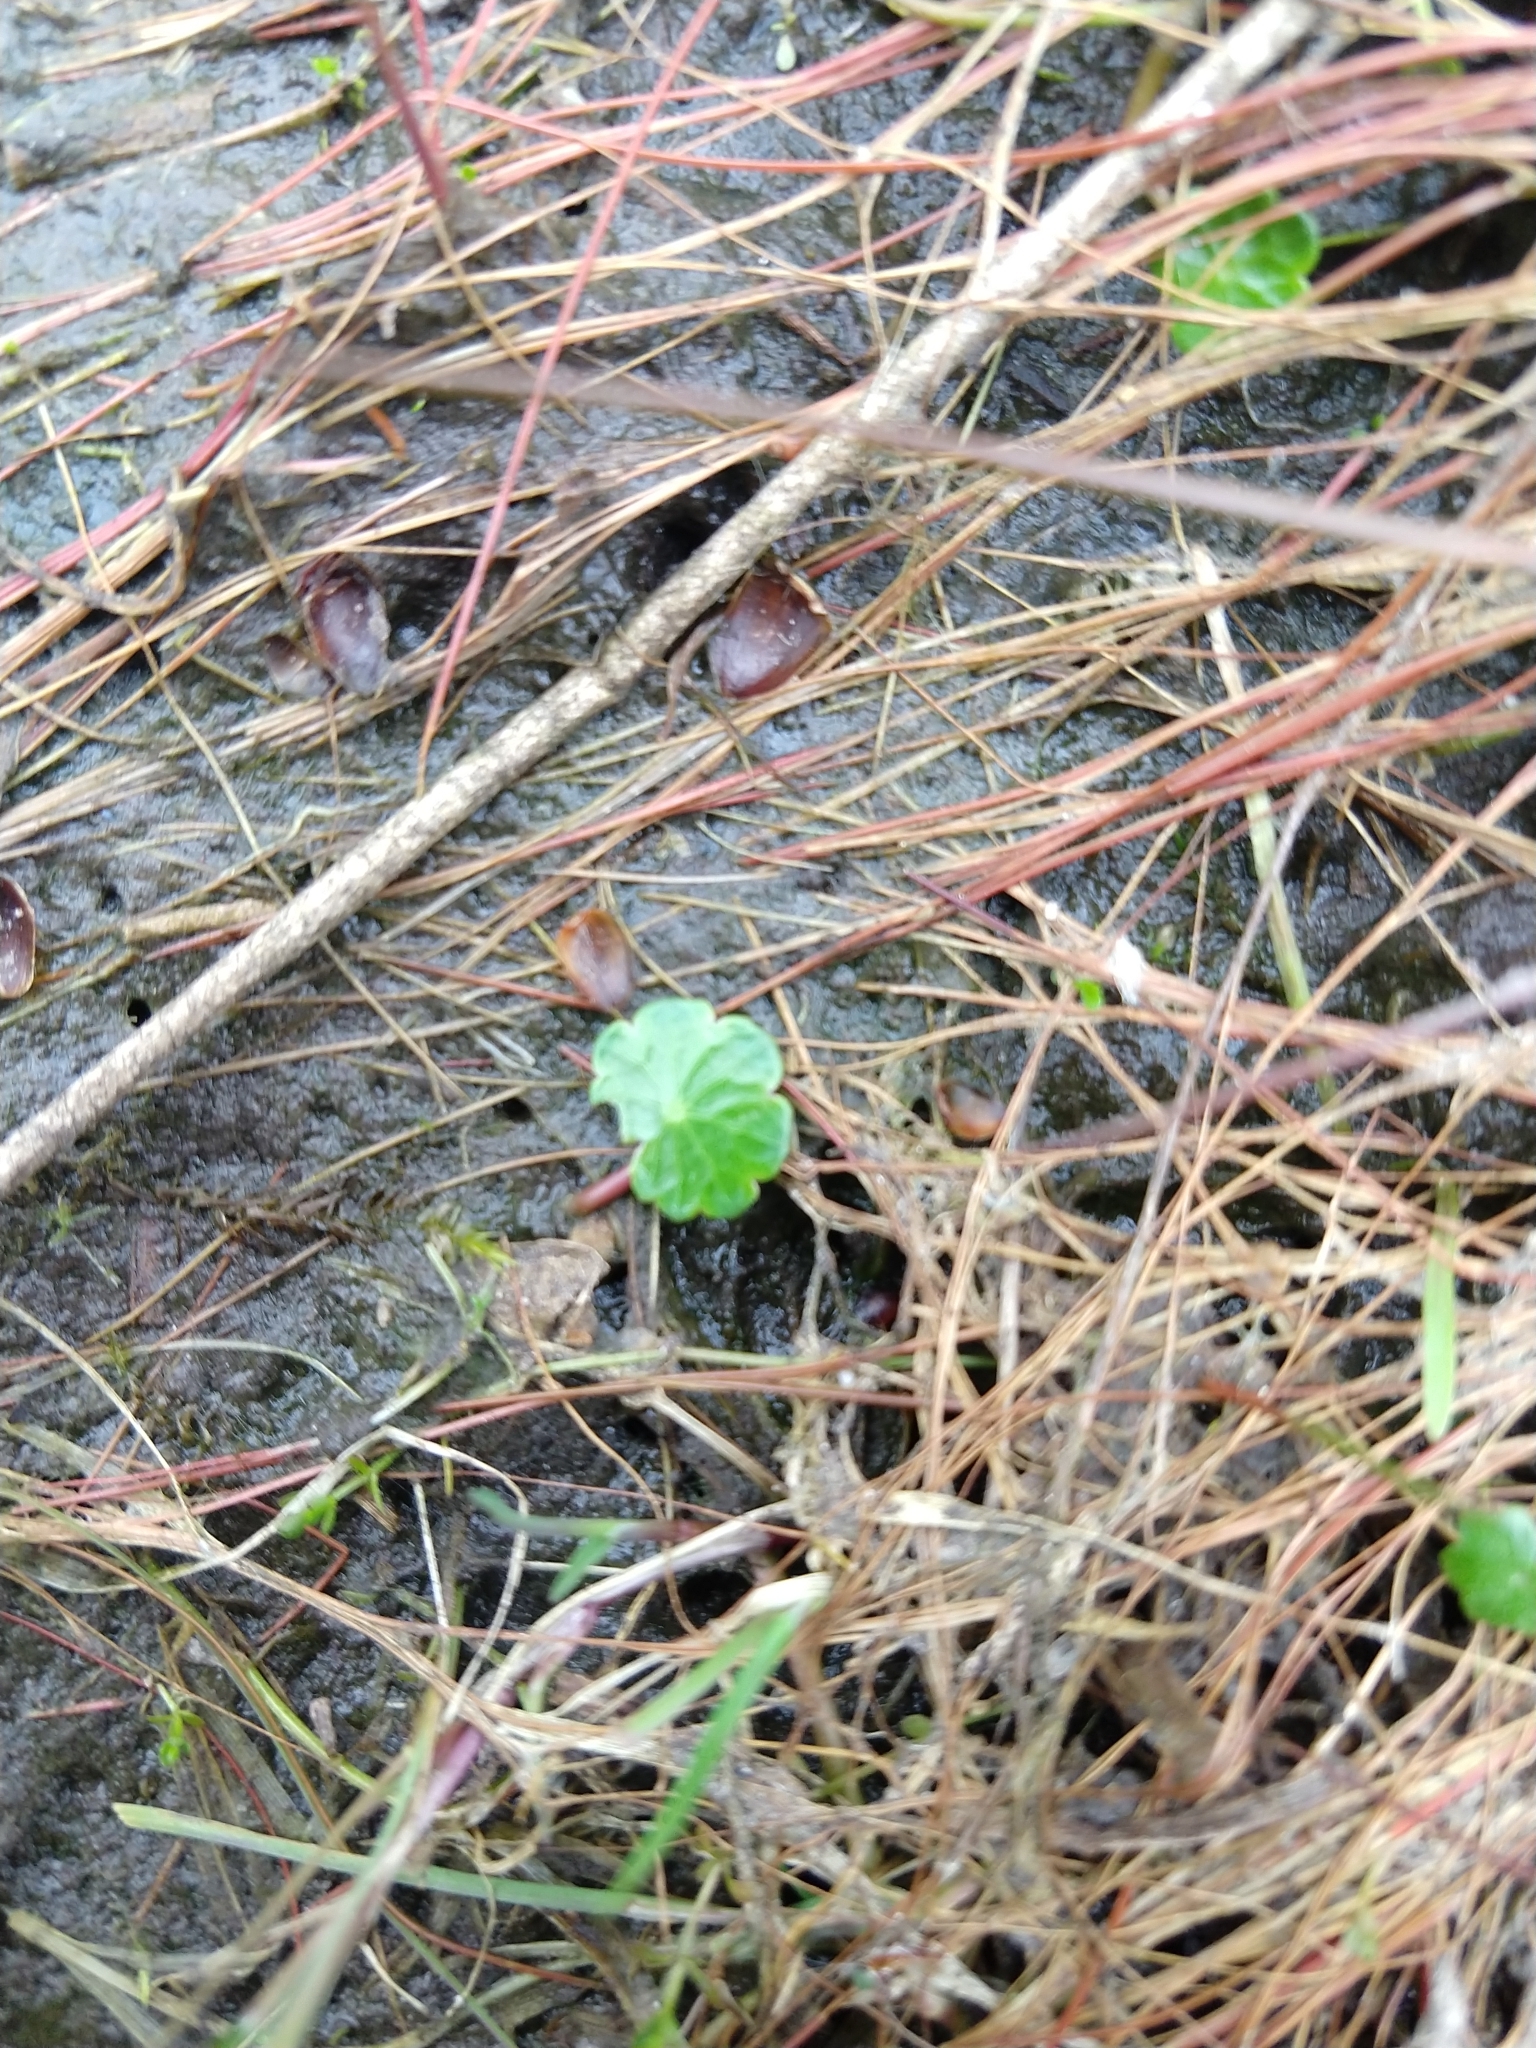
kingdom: Plantae
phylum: Tracheophyta
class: Magnoliopsida
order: Apiales
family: Araliaceae
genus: Hydrocotyle
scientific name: Hydrocotyle vulgaris
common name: Marsh pennywort
